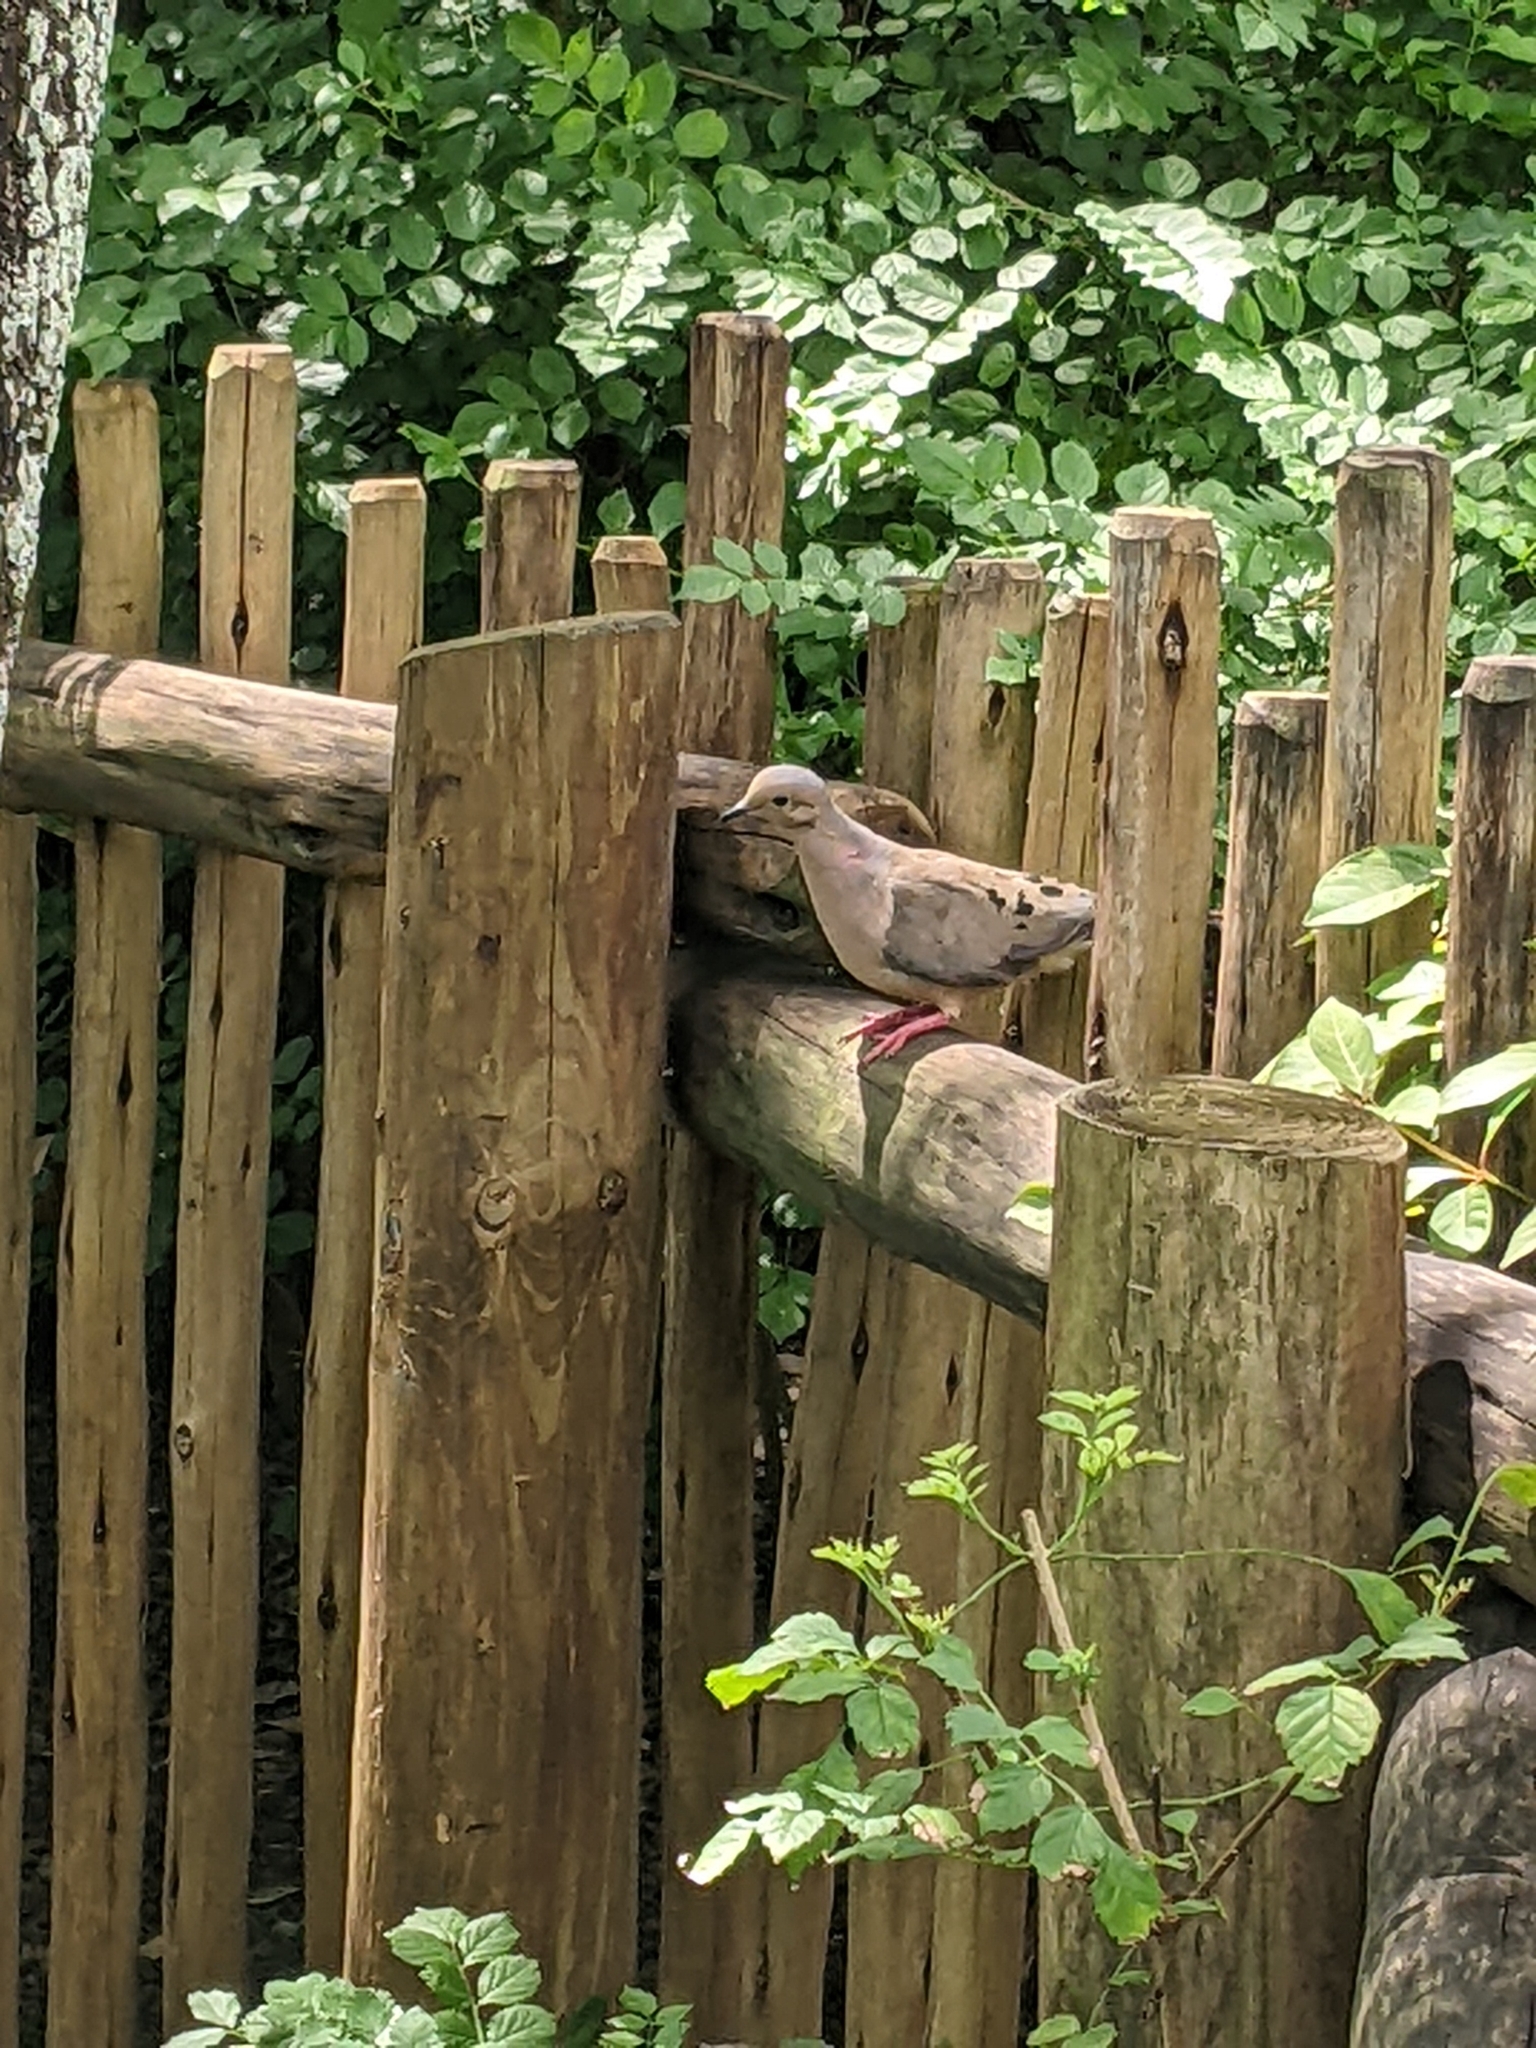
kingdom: Animalia
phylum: Chordata
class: Aves
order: Columbiformes
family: Columbidae
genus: Zenaida
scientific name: Zenaida macroura
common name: Mourning dove
